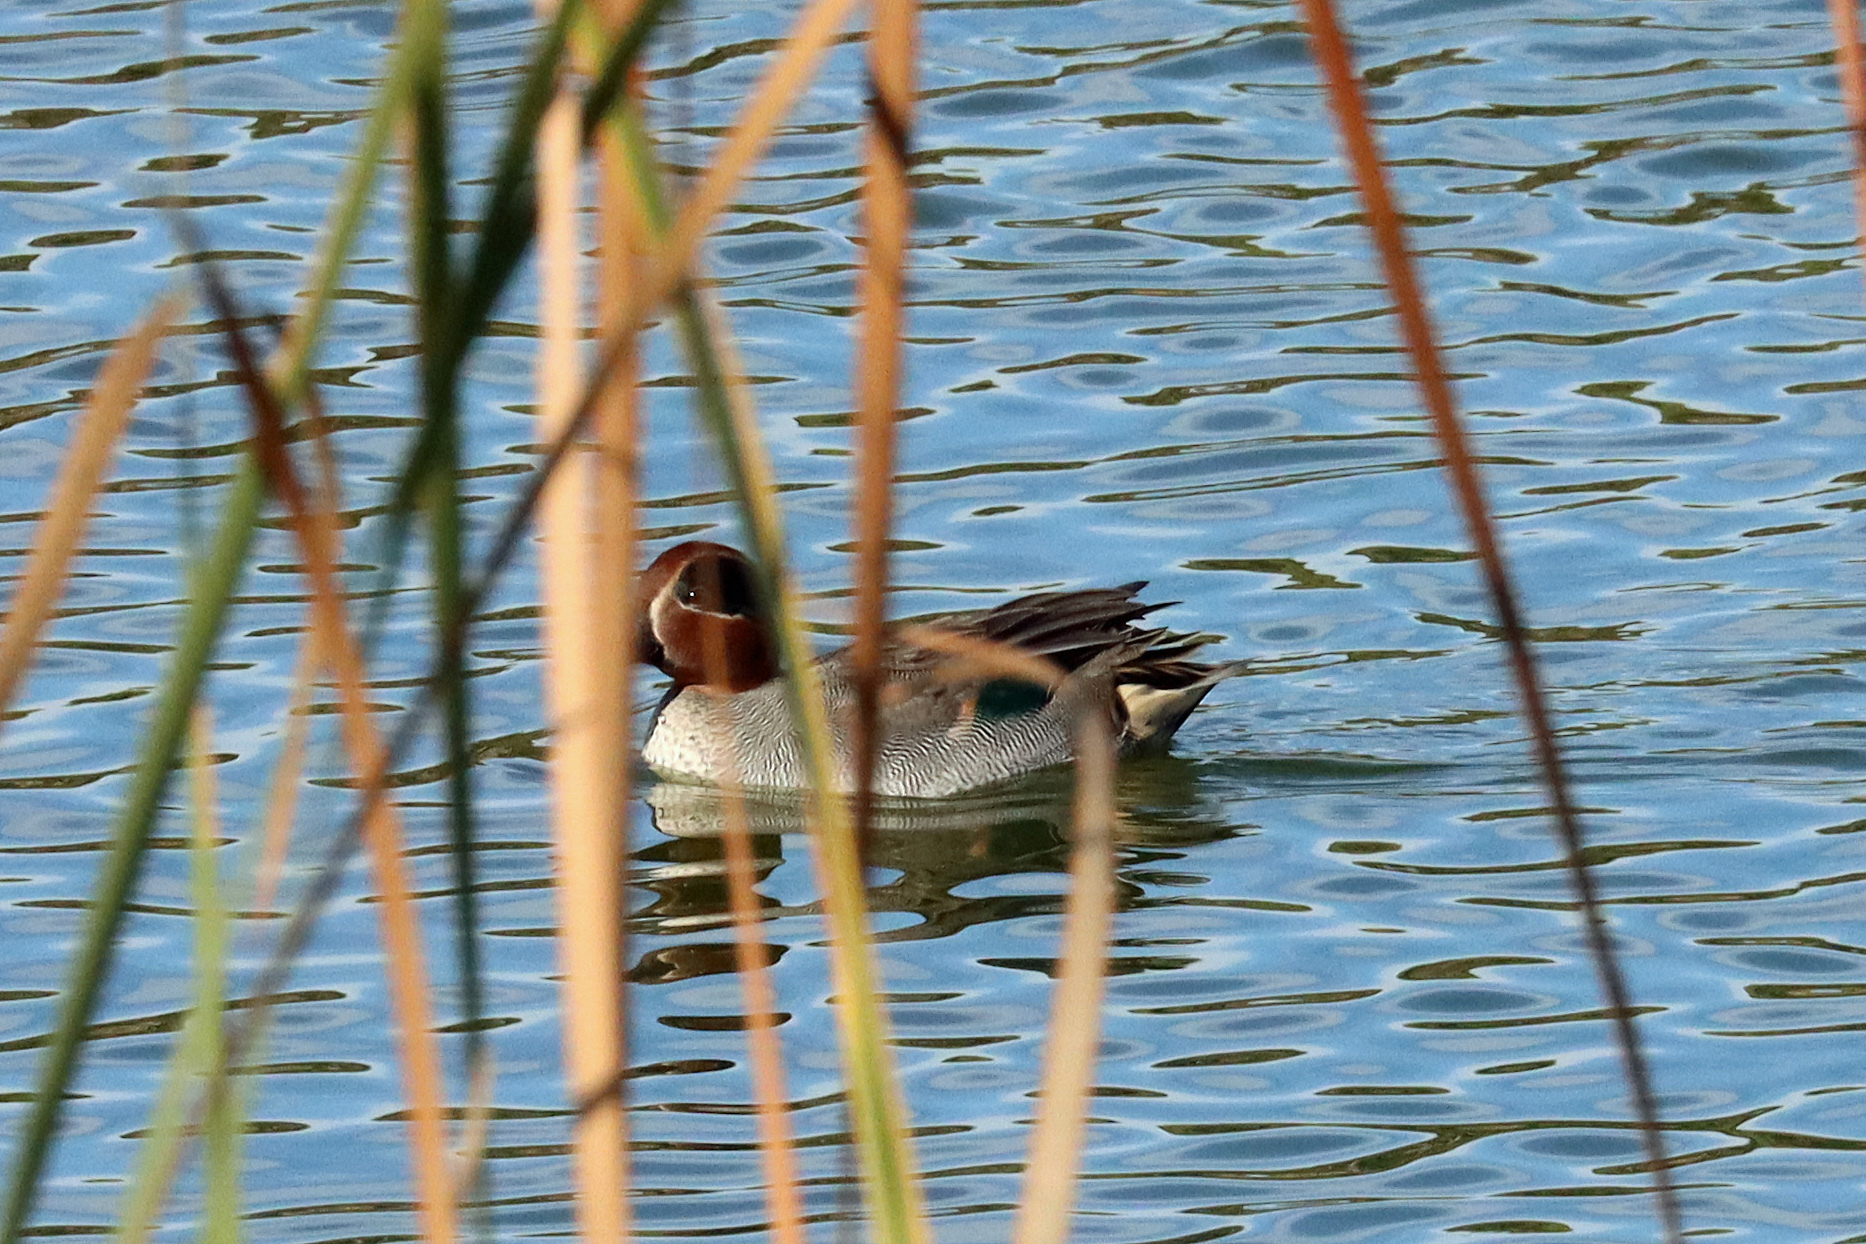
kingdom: Animalia
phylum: Chordata
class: Aves
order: Anseriformes
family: Anatidae
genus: Anas
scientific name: Anas crecca
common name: Eurasian teal
